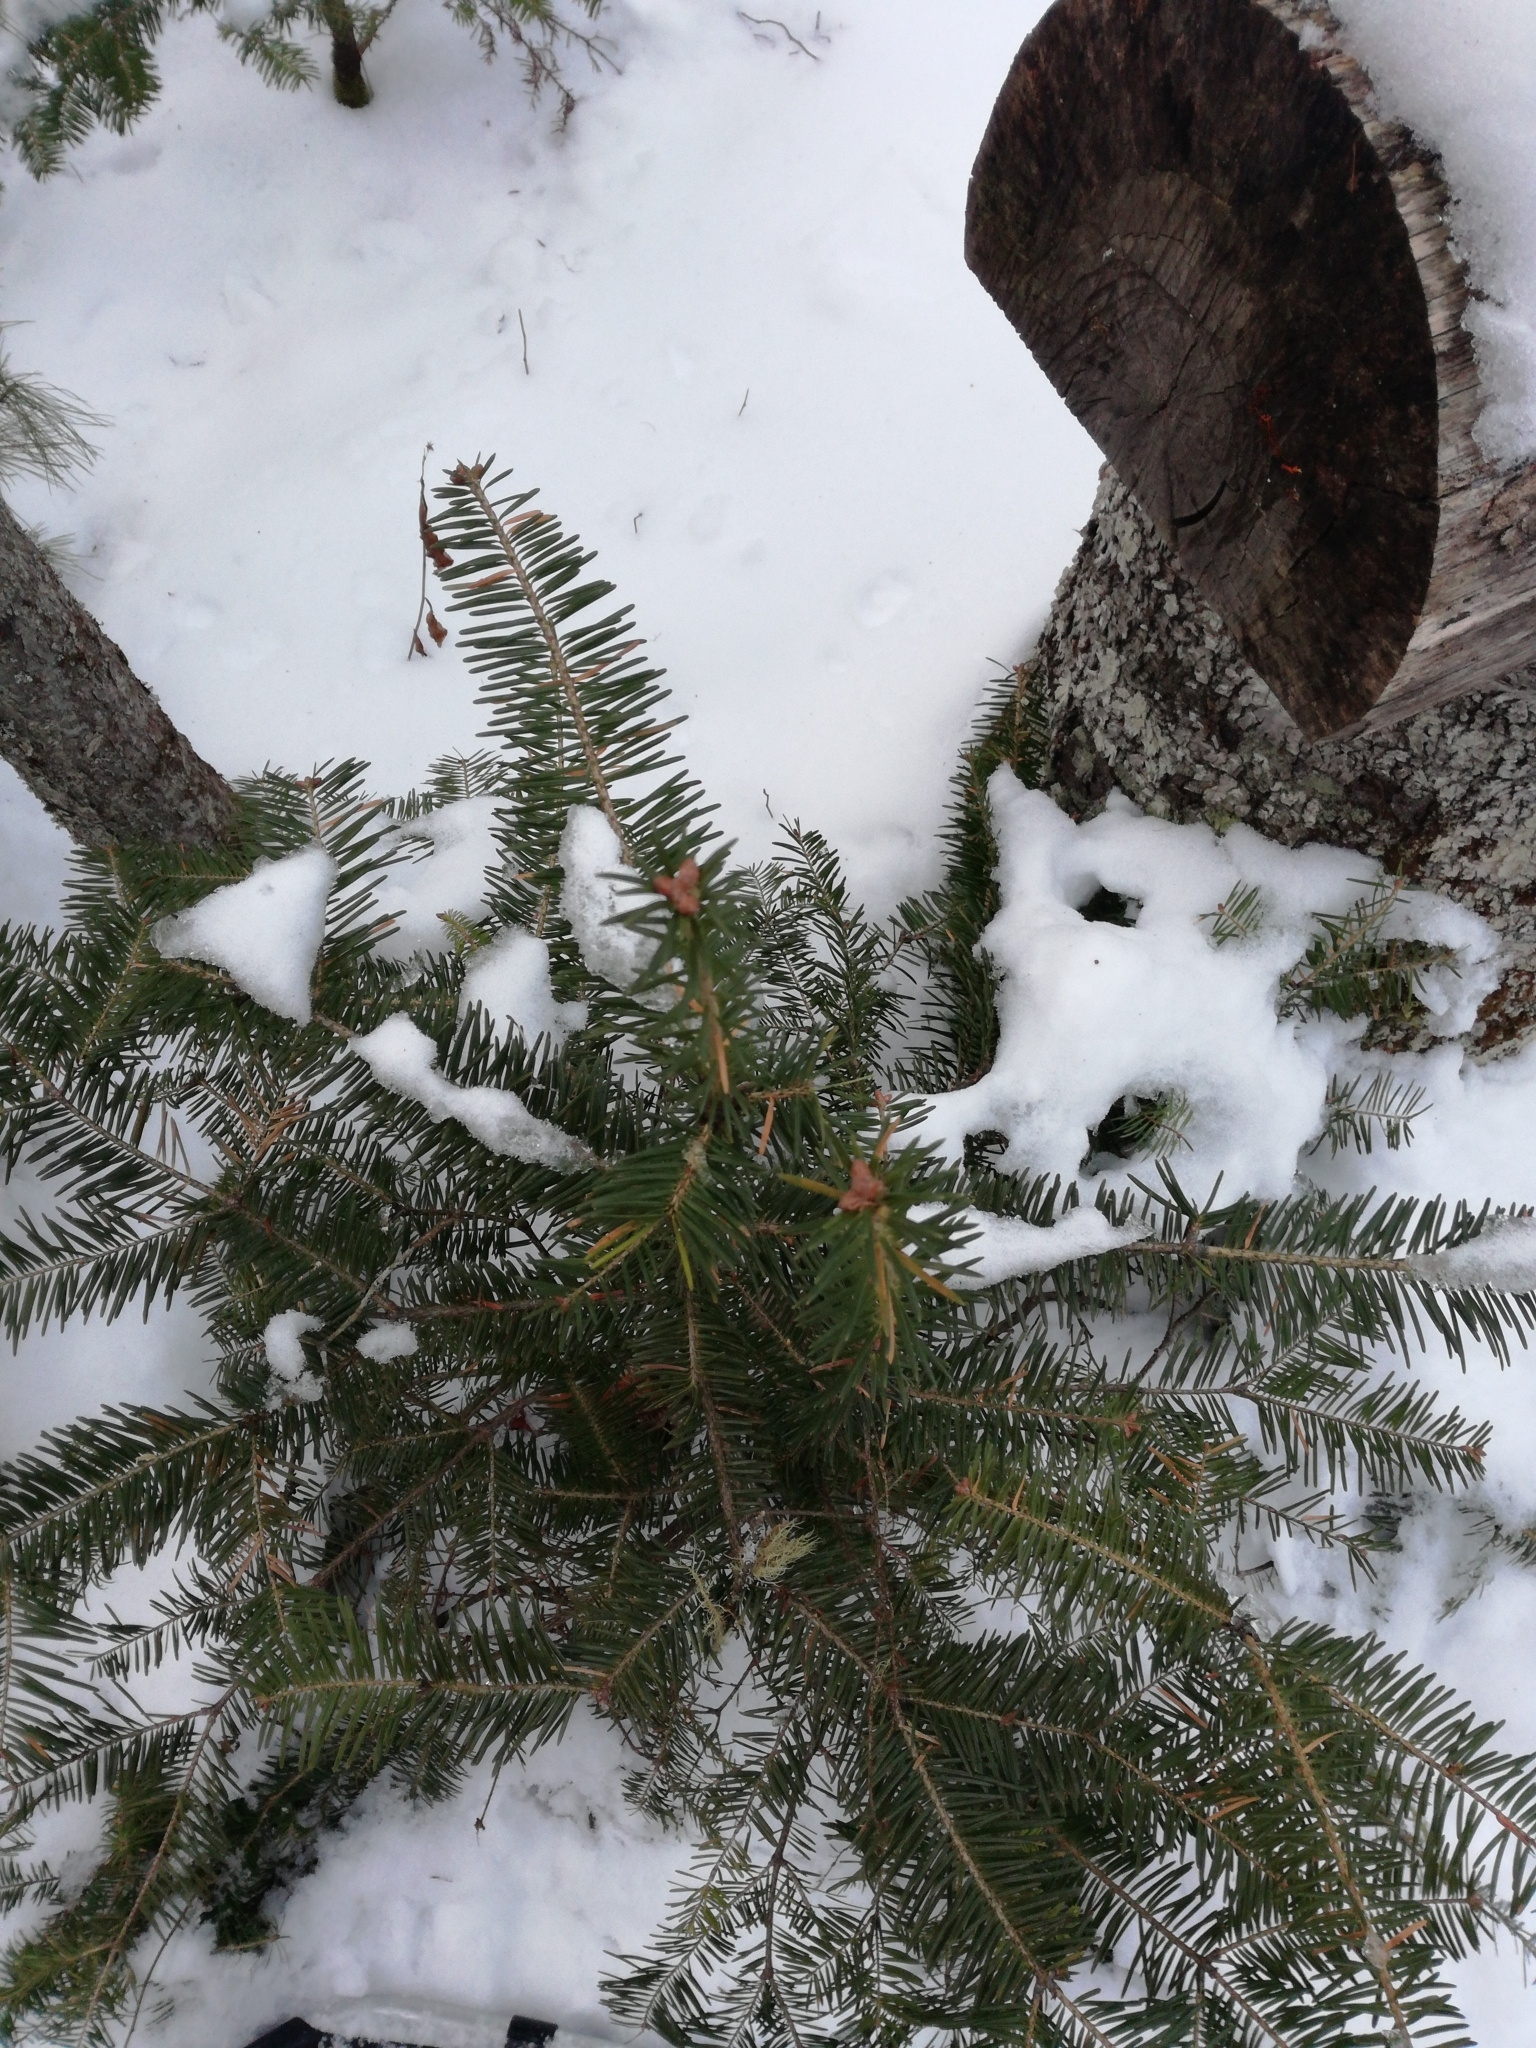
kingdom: Plantae
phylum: Tracheophyta
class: Pinopsida
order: Pinales
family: Pinaceae
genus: Abies
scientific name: Abies balsamea
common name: Balsam fir
